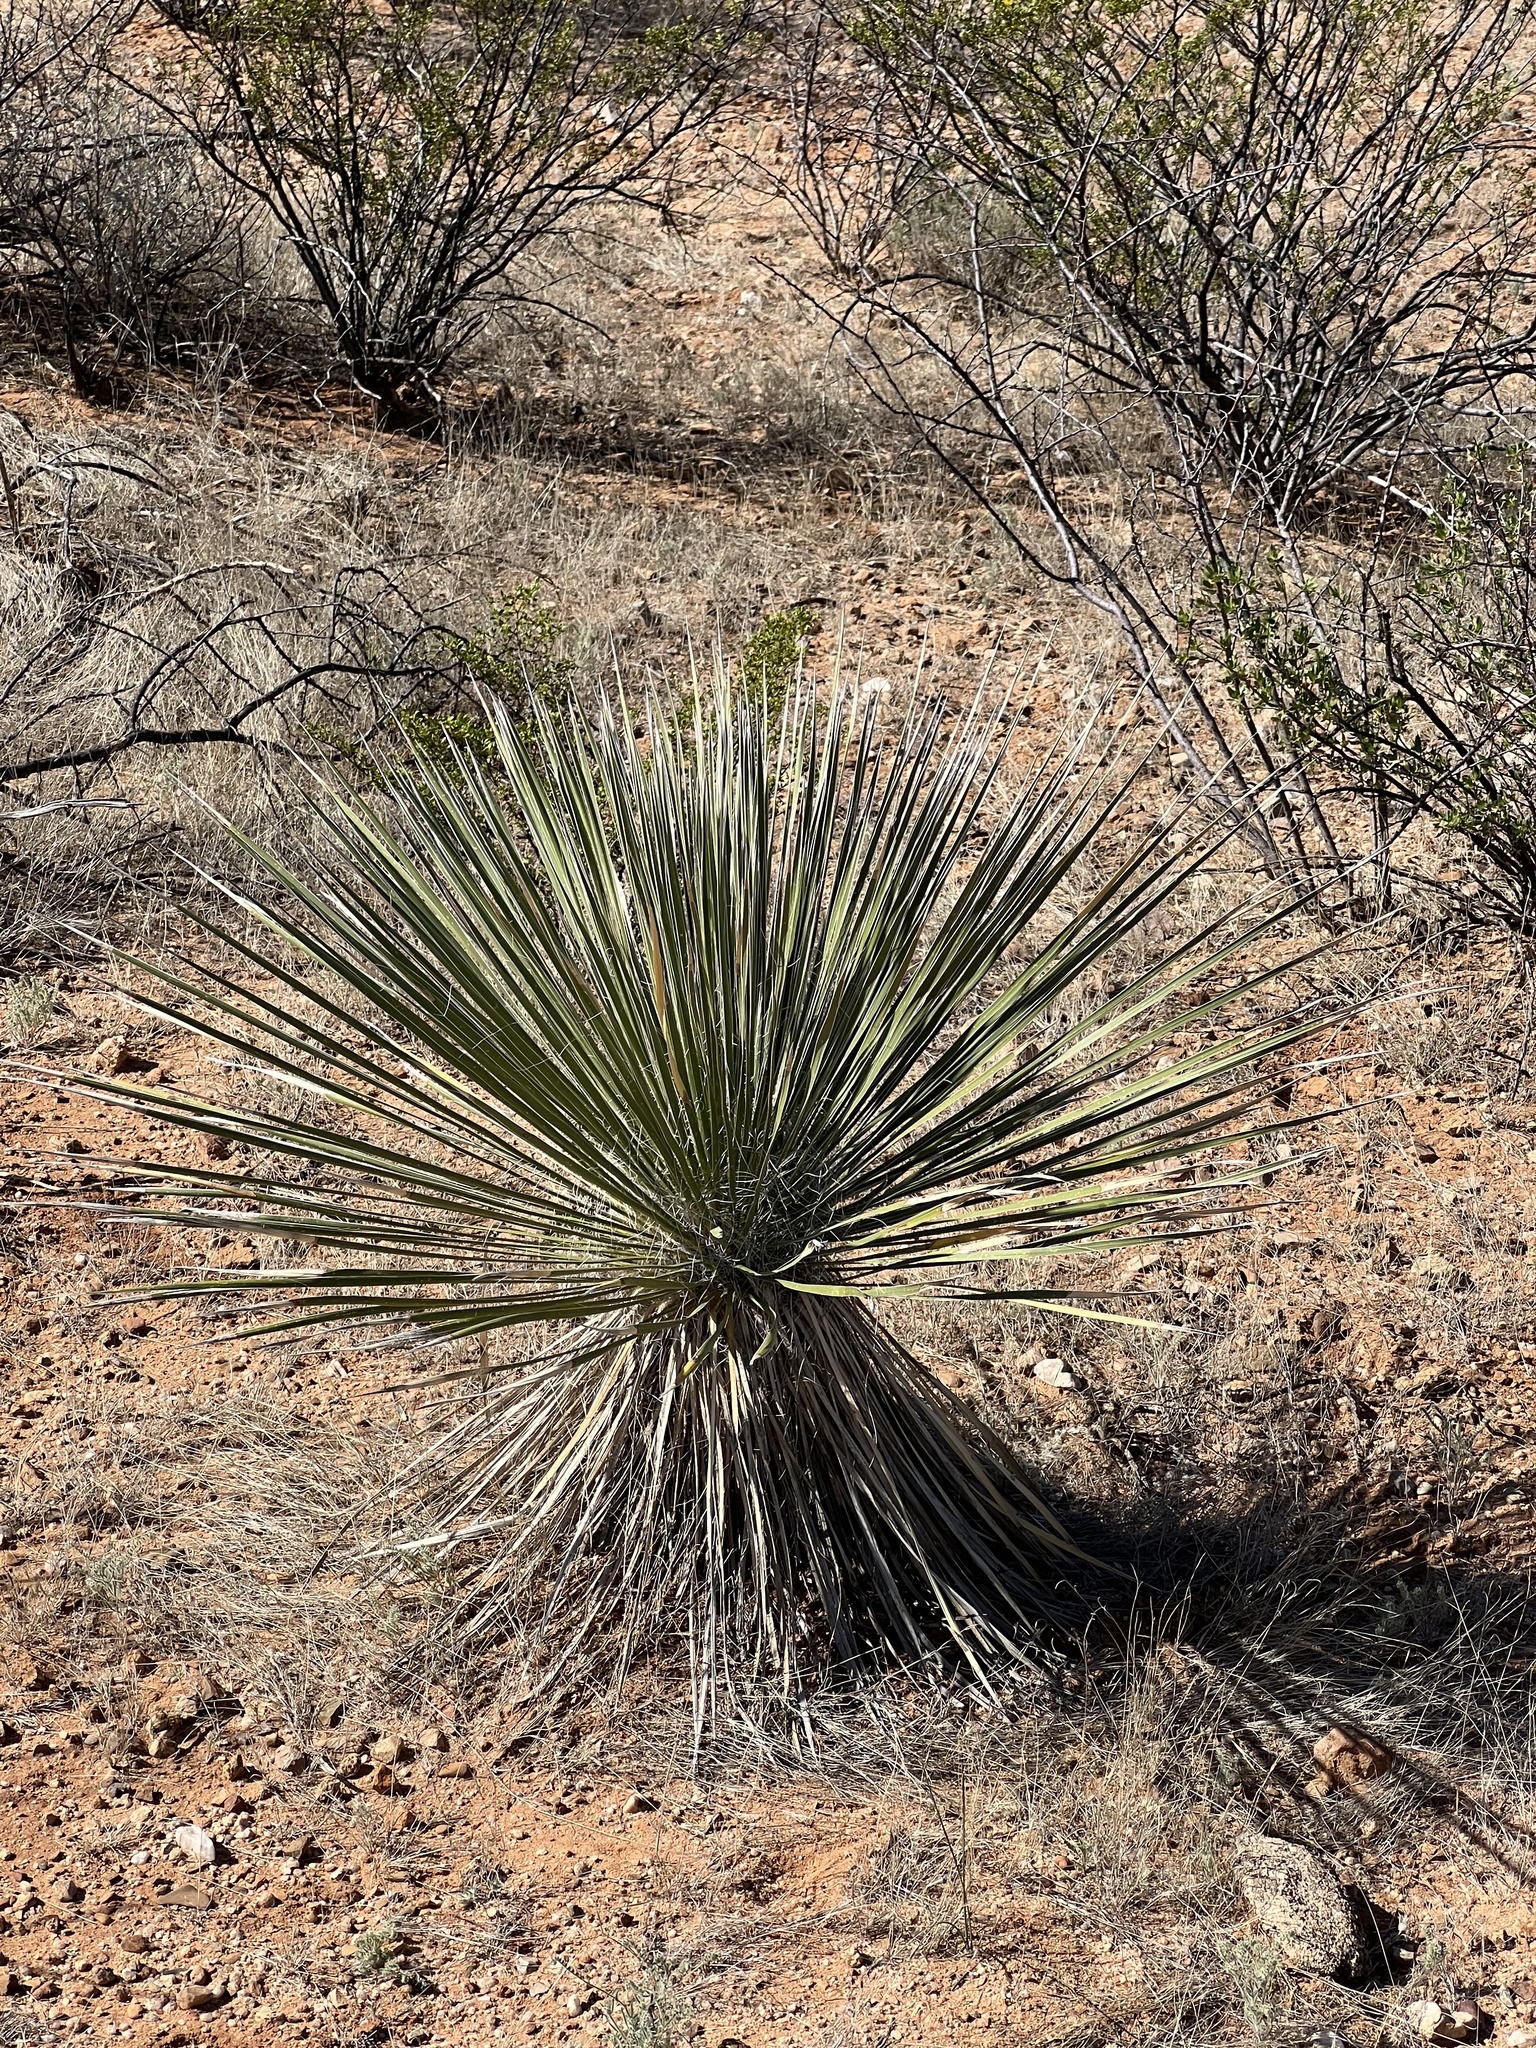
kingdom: Plantae
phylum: Tracheophyta
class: Liliopsida
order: Asparagales
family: Asparagaceae
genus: Yucca
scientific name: Yucca elata
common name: Palmella
